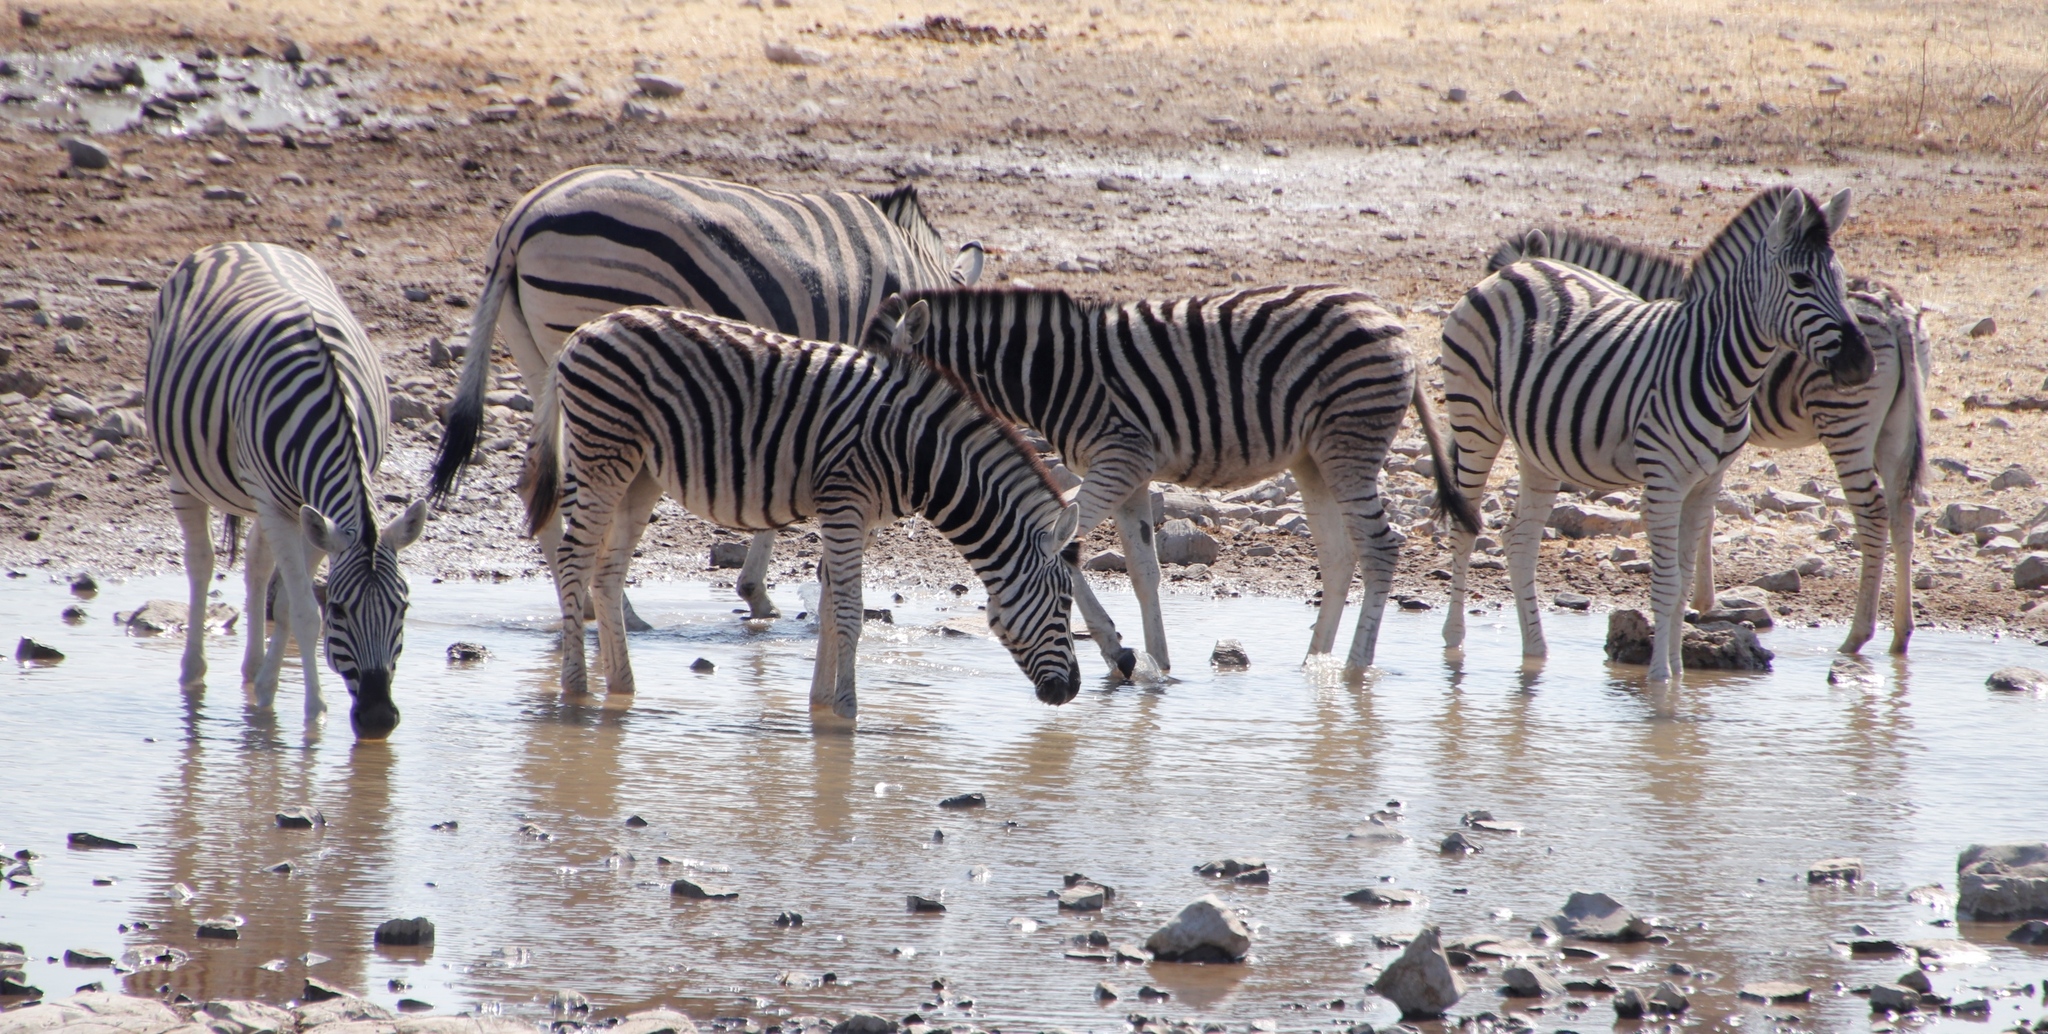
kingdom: Animalia
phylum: Chordata
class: Mammalia
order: Perissodactyla
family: Equidae
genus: Equus
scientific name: Equus quagga
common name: Plains zebra
